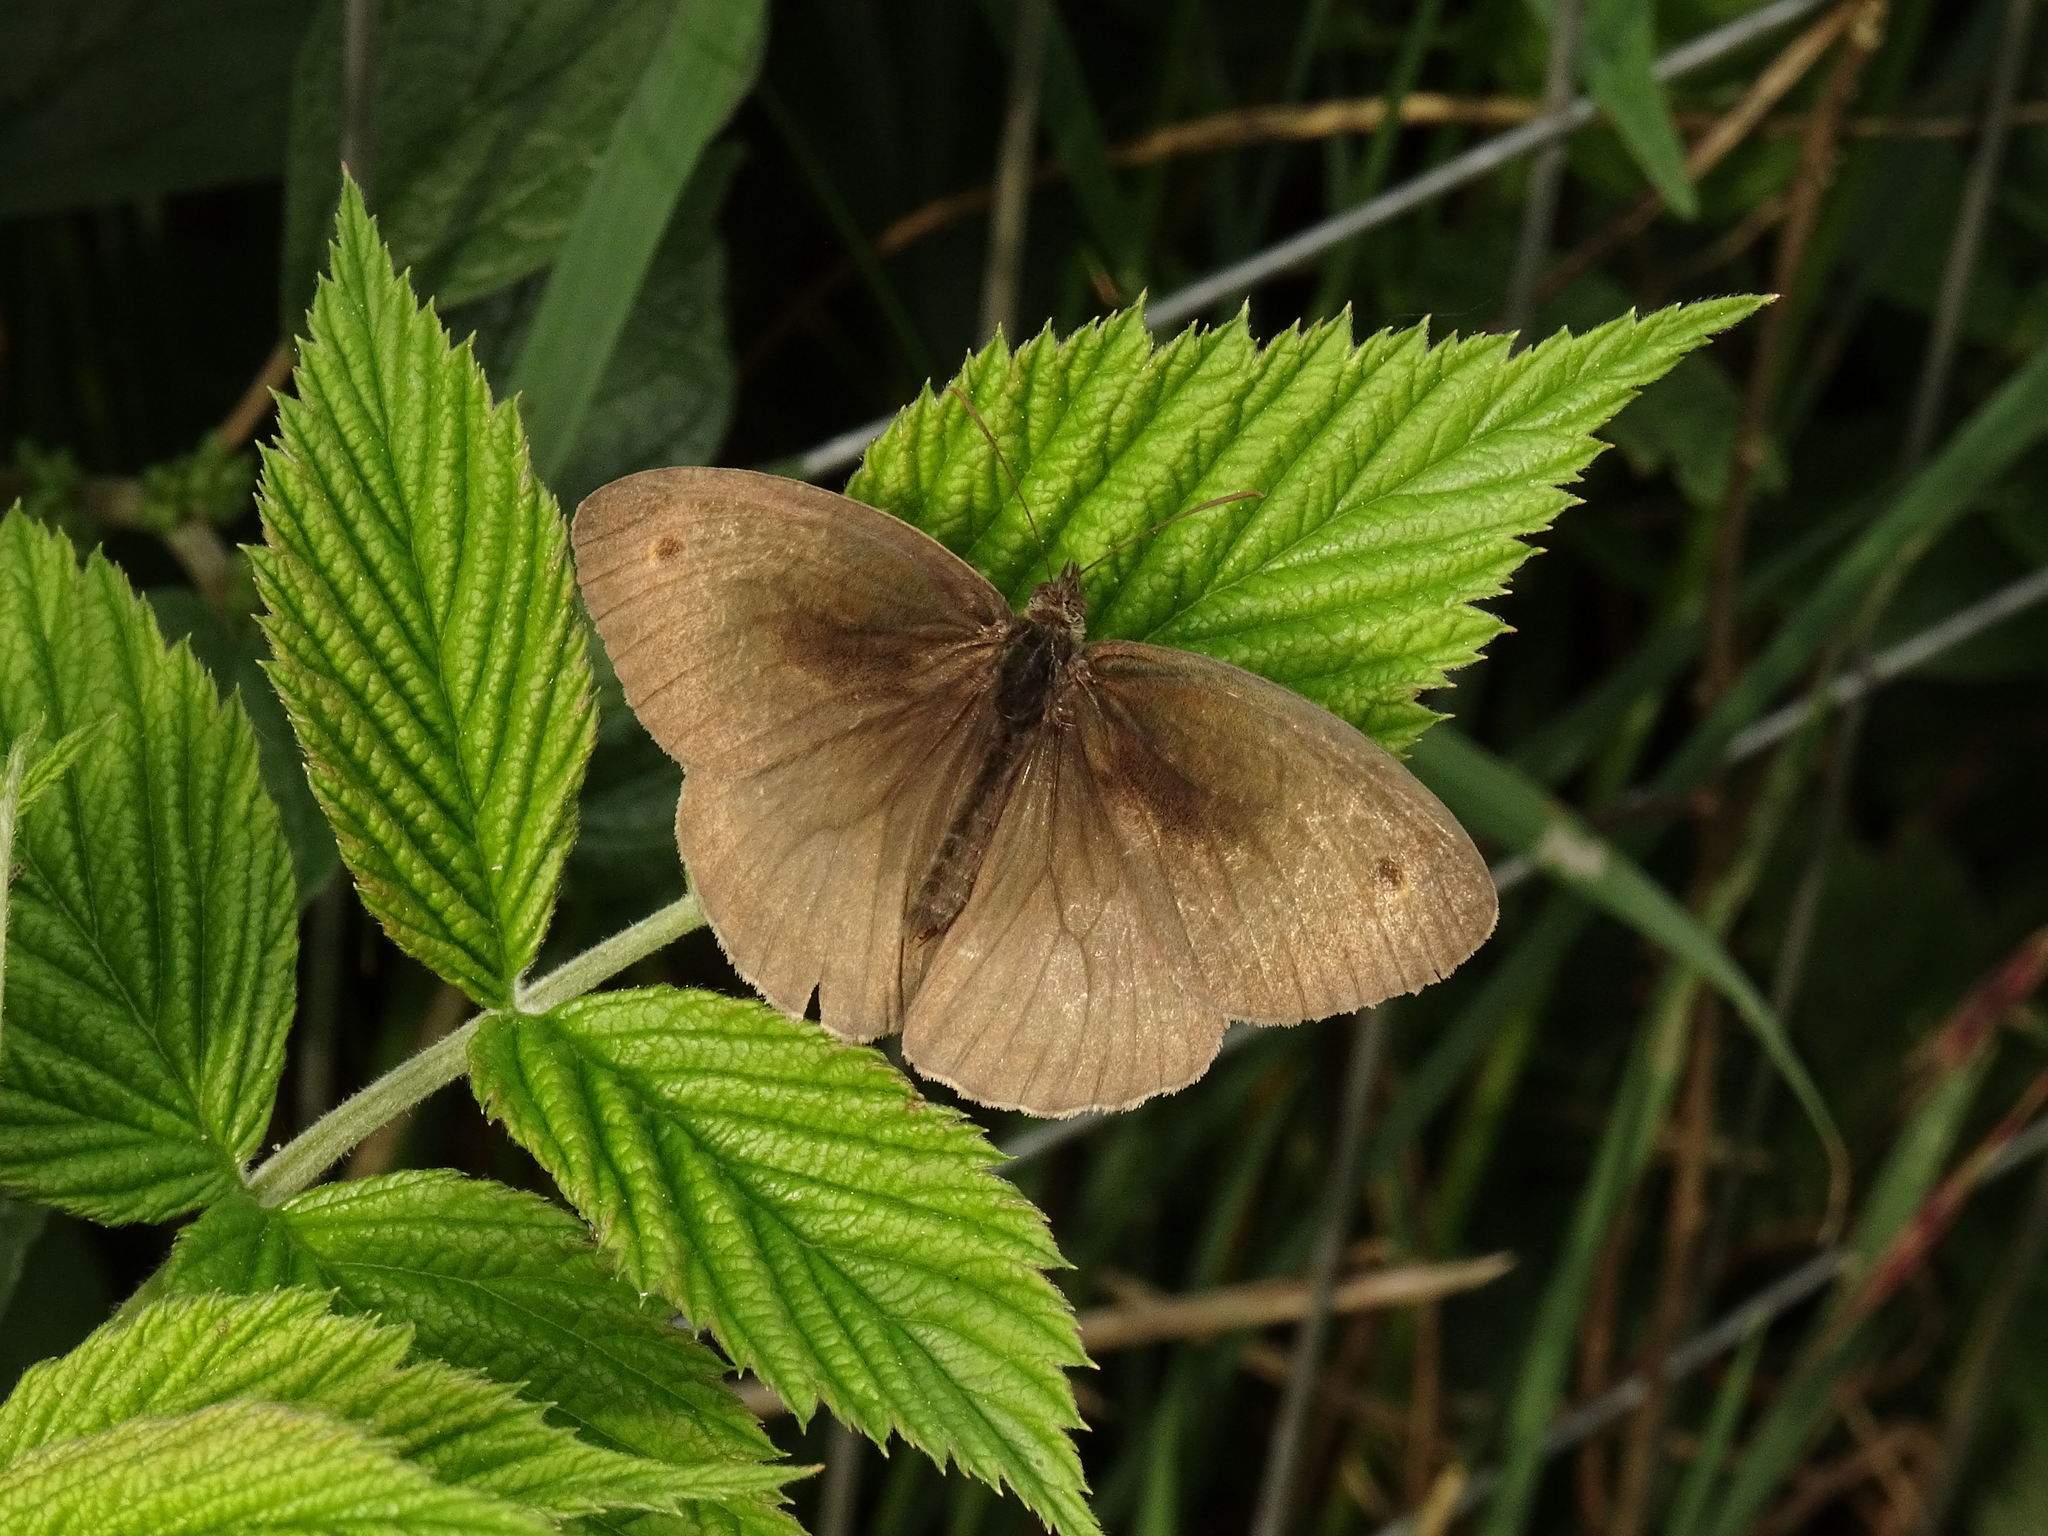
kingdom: Animalia
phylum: Arthropoda
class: Insecta
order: Lepidoptera
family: Nymphalidae
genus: Maniola
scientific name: Maniola jurtina
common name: Meadow brown
